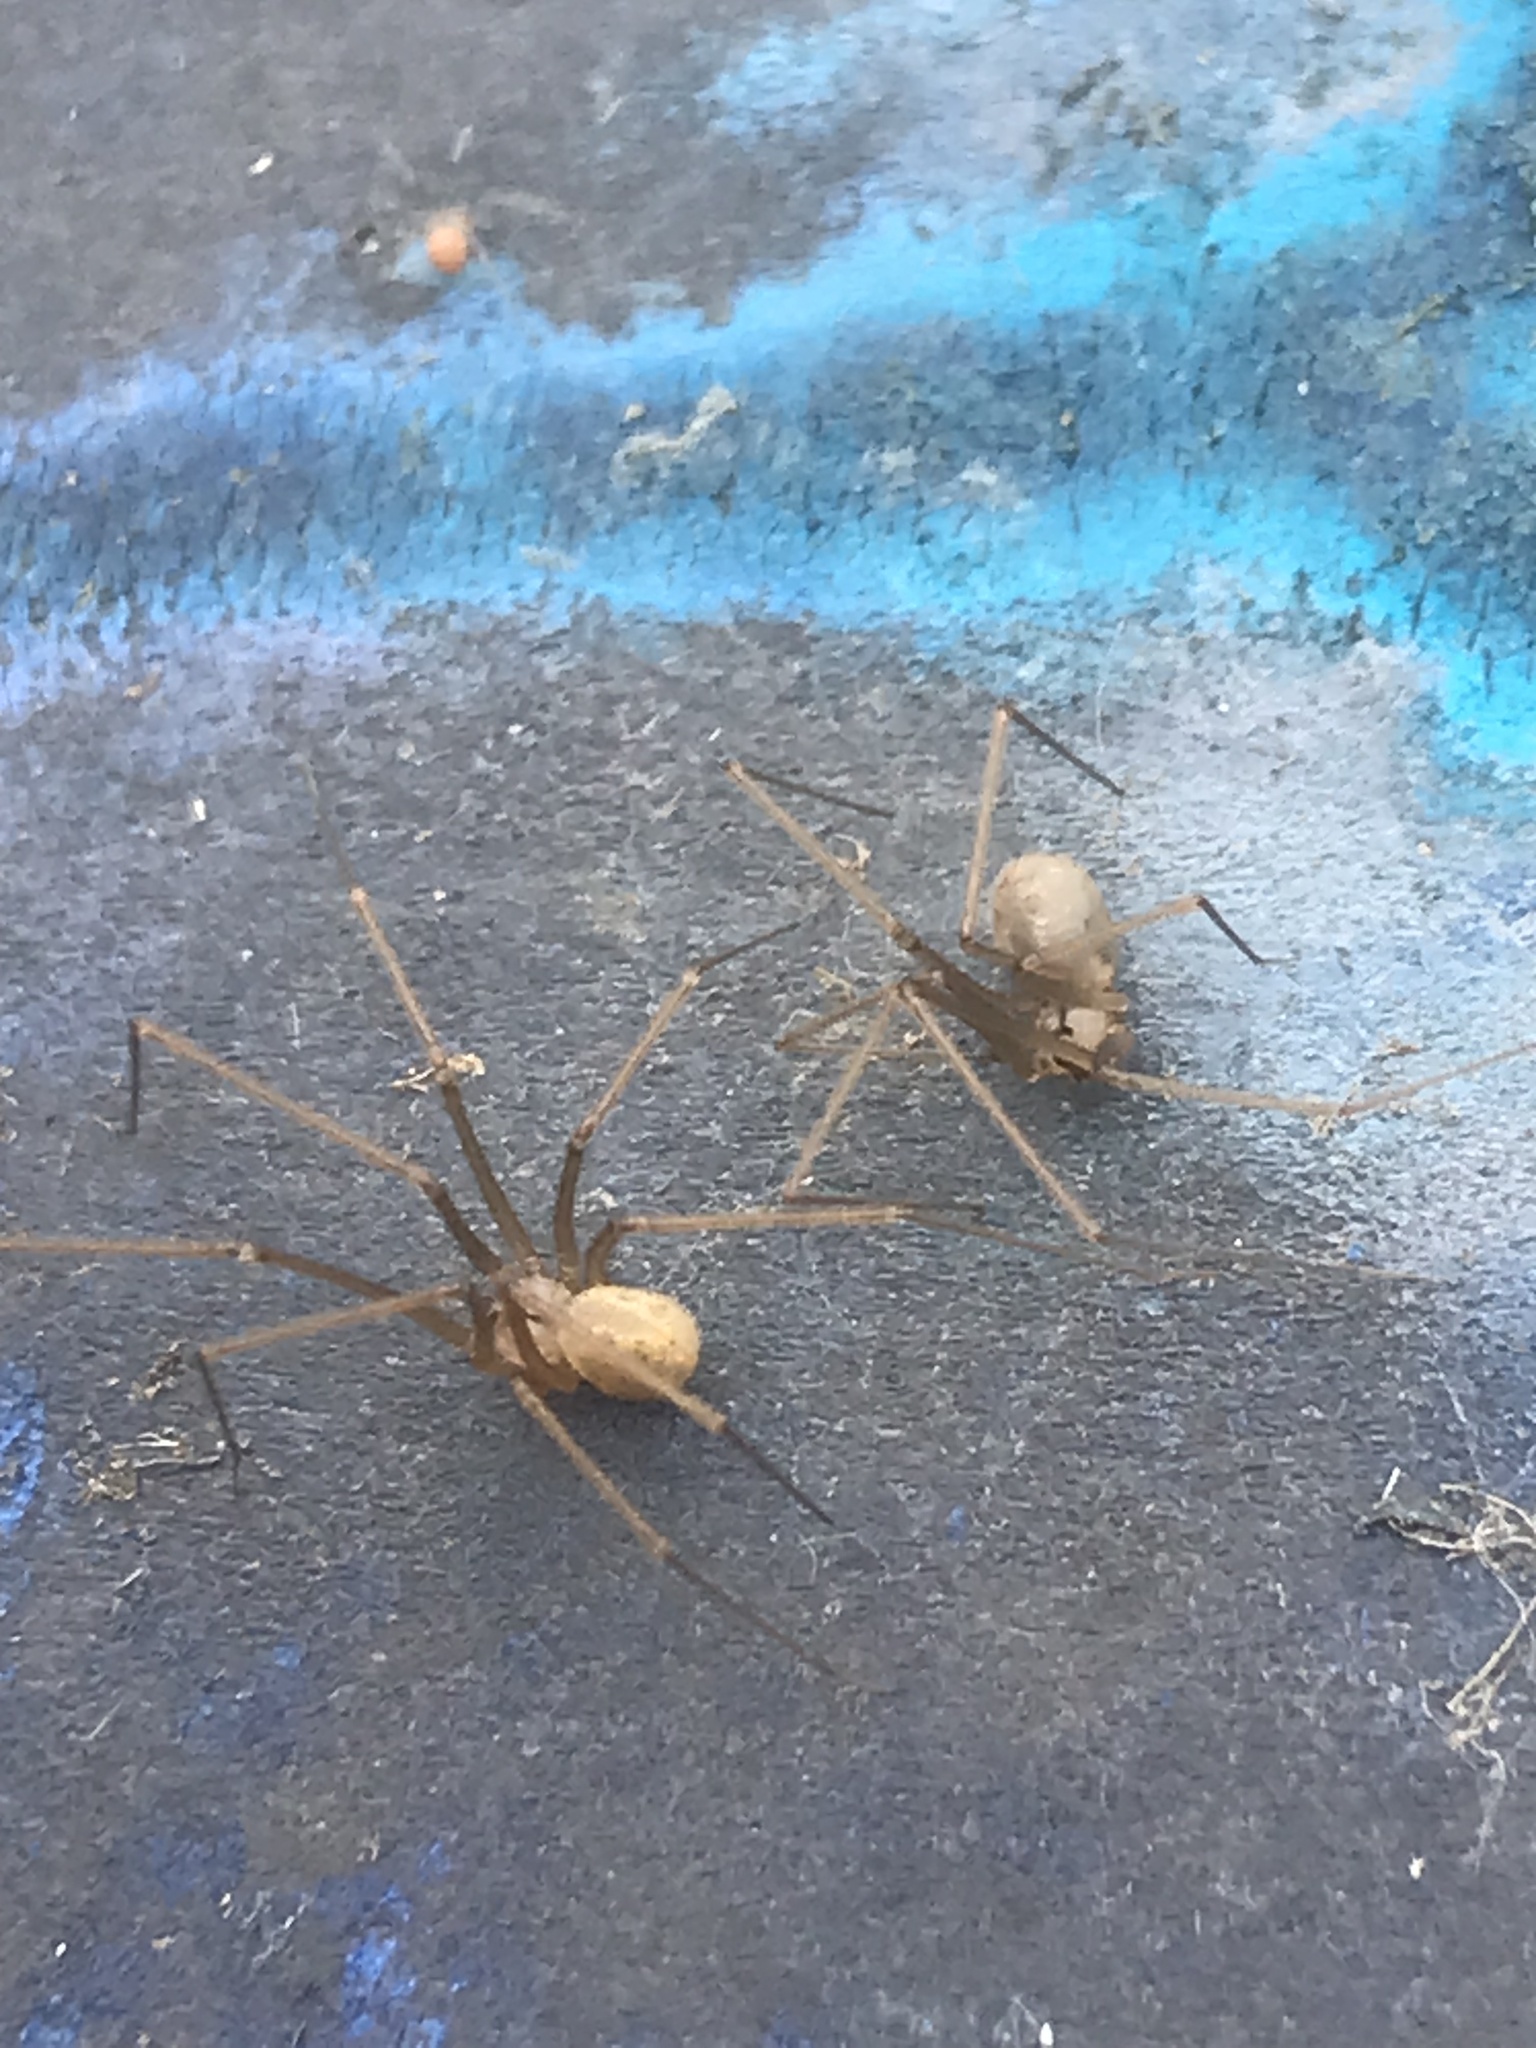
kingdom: Animalia
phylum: Arthropoda
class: Arachnida
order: Araneae
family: Pholcidae
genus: Psilochorus
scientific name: Psilochorus hesperus
